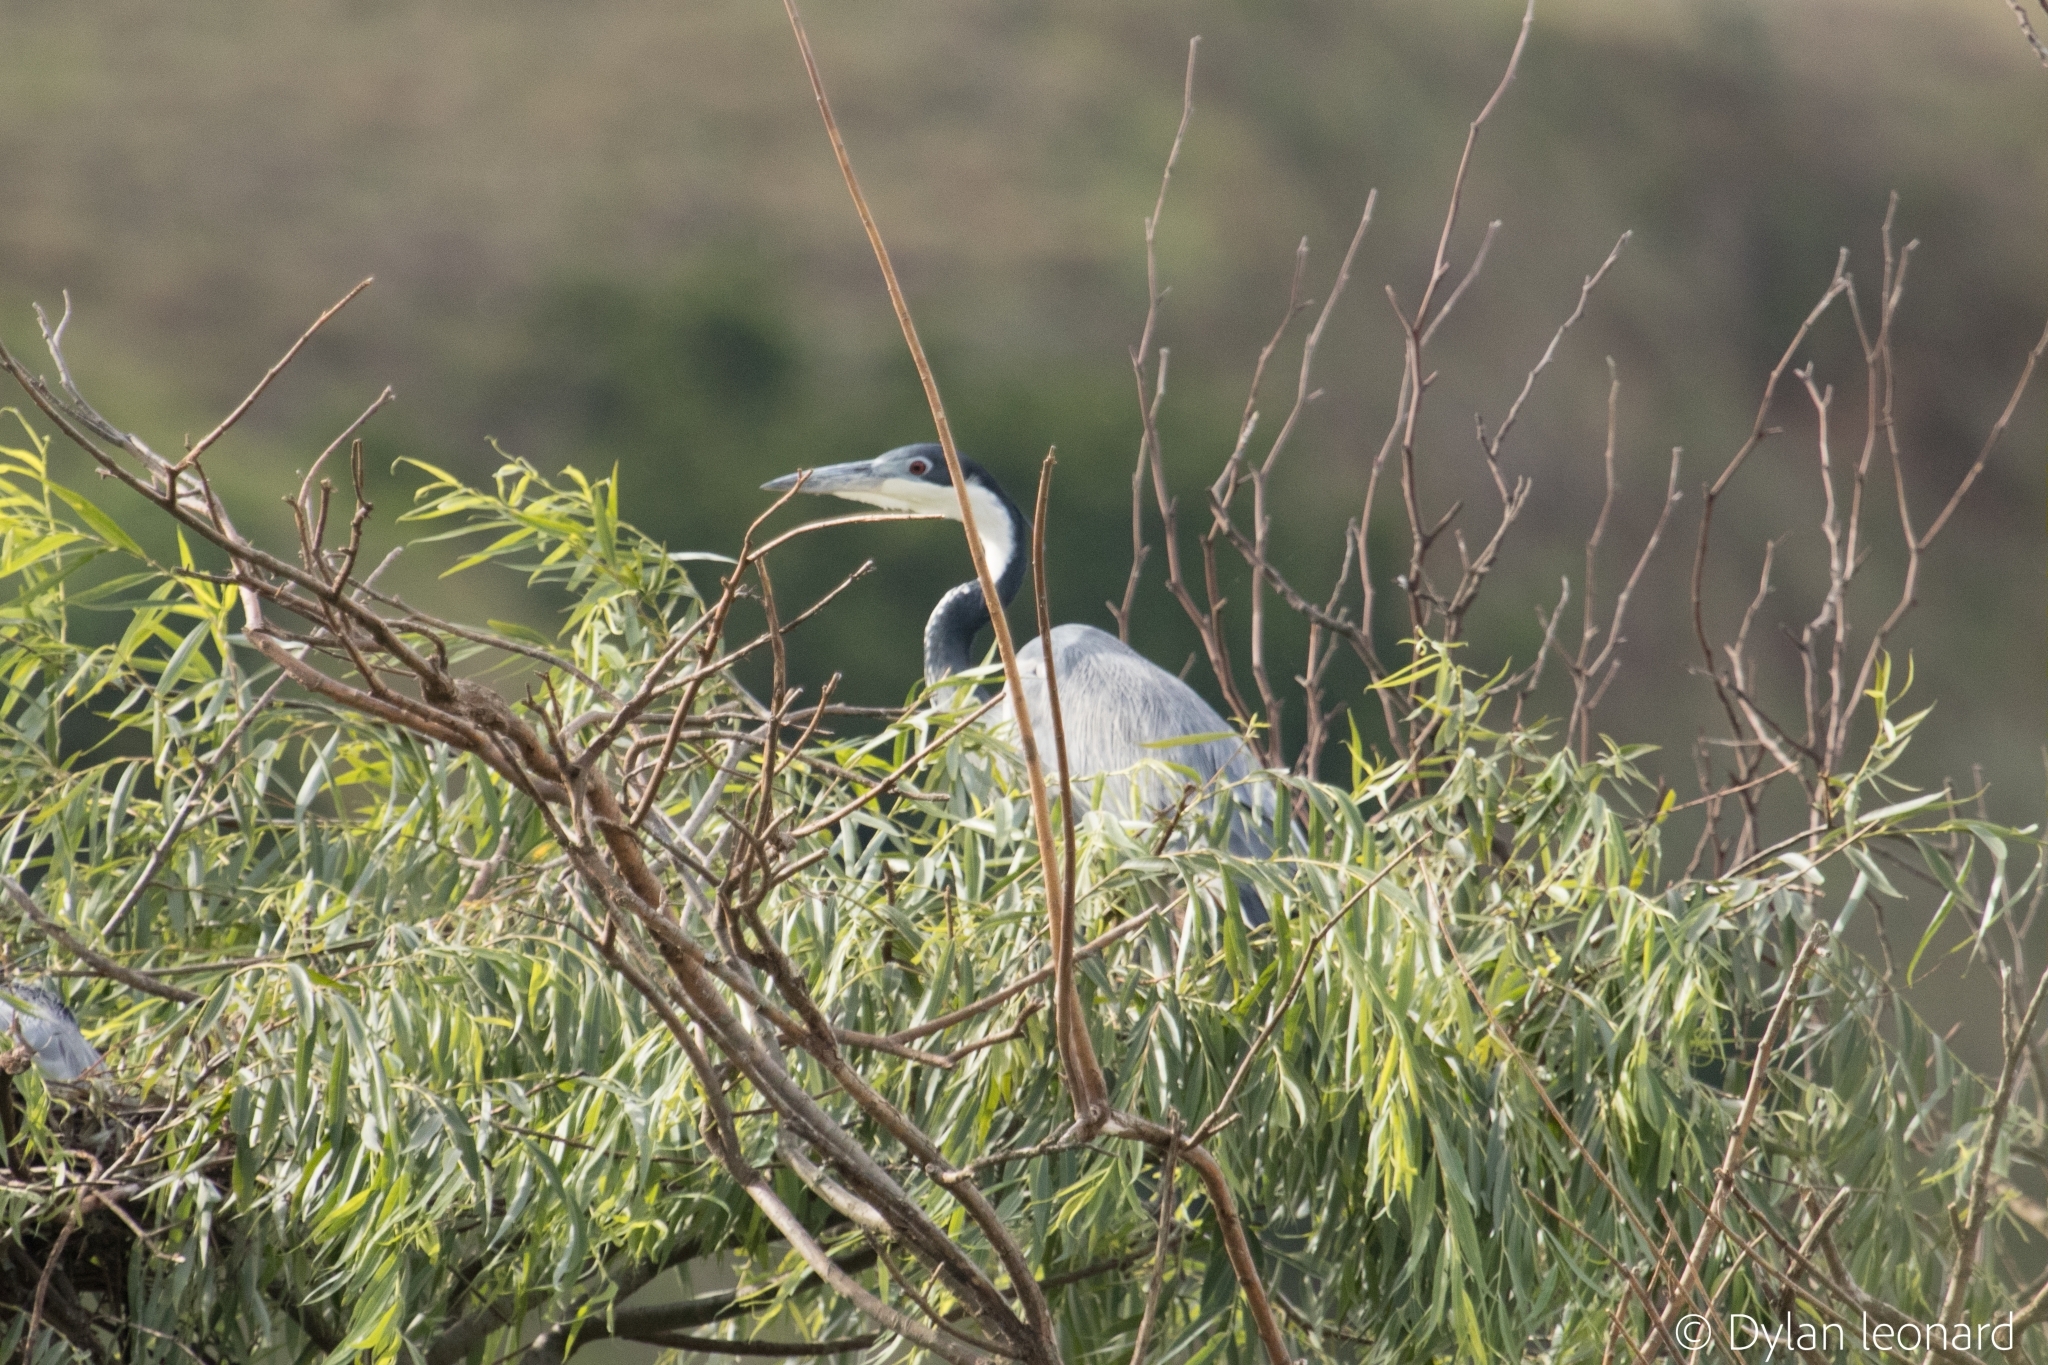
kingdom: Animalia
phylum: Chordata
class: Aves
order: Pelecaniformes
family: Ardeidae
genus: Ardea
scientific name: Ardea melanocephala
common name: Black-headed heron
